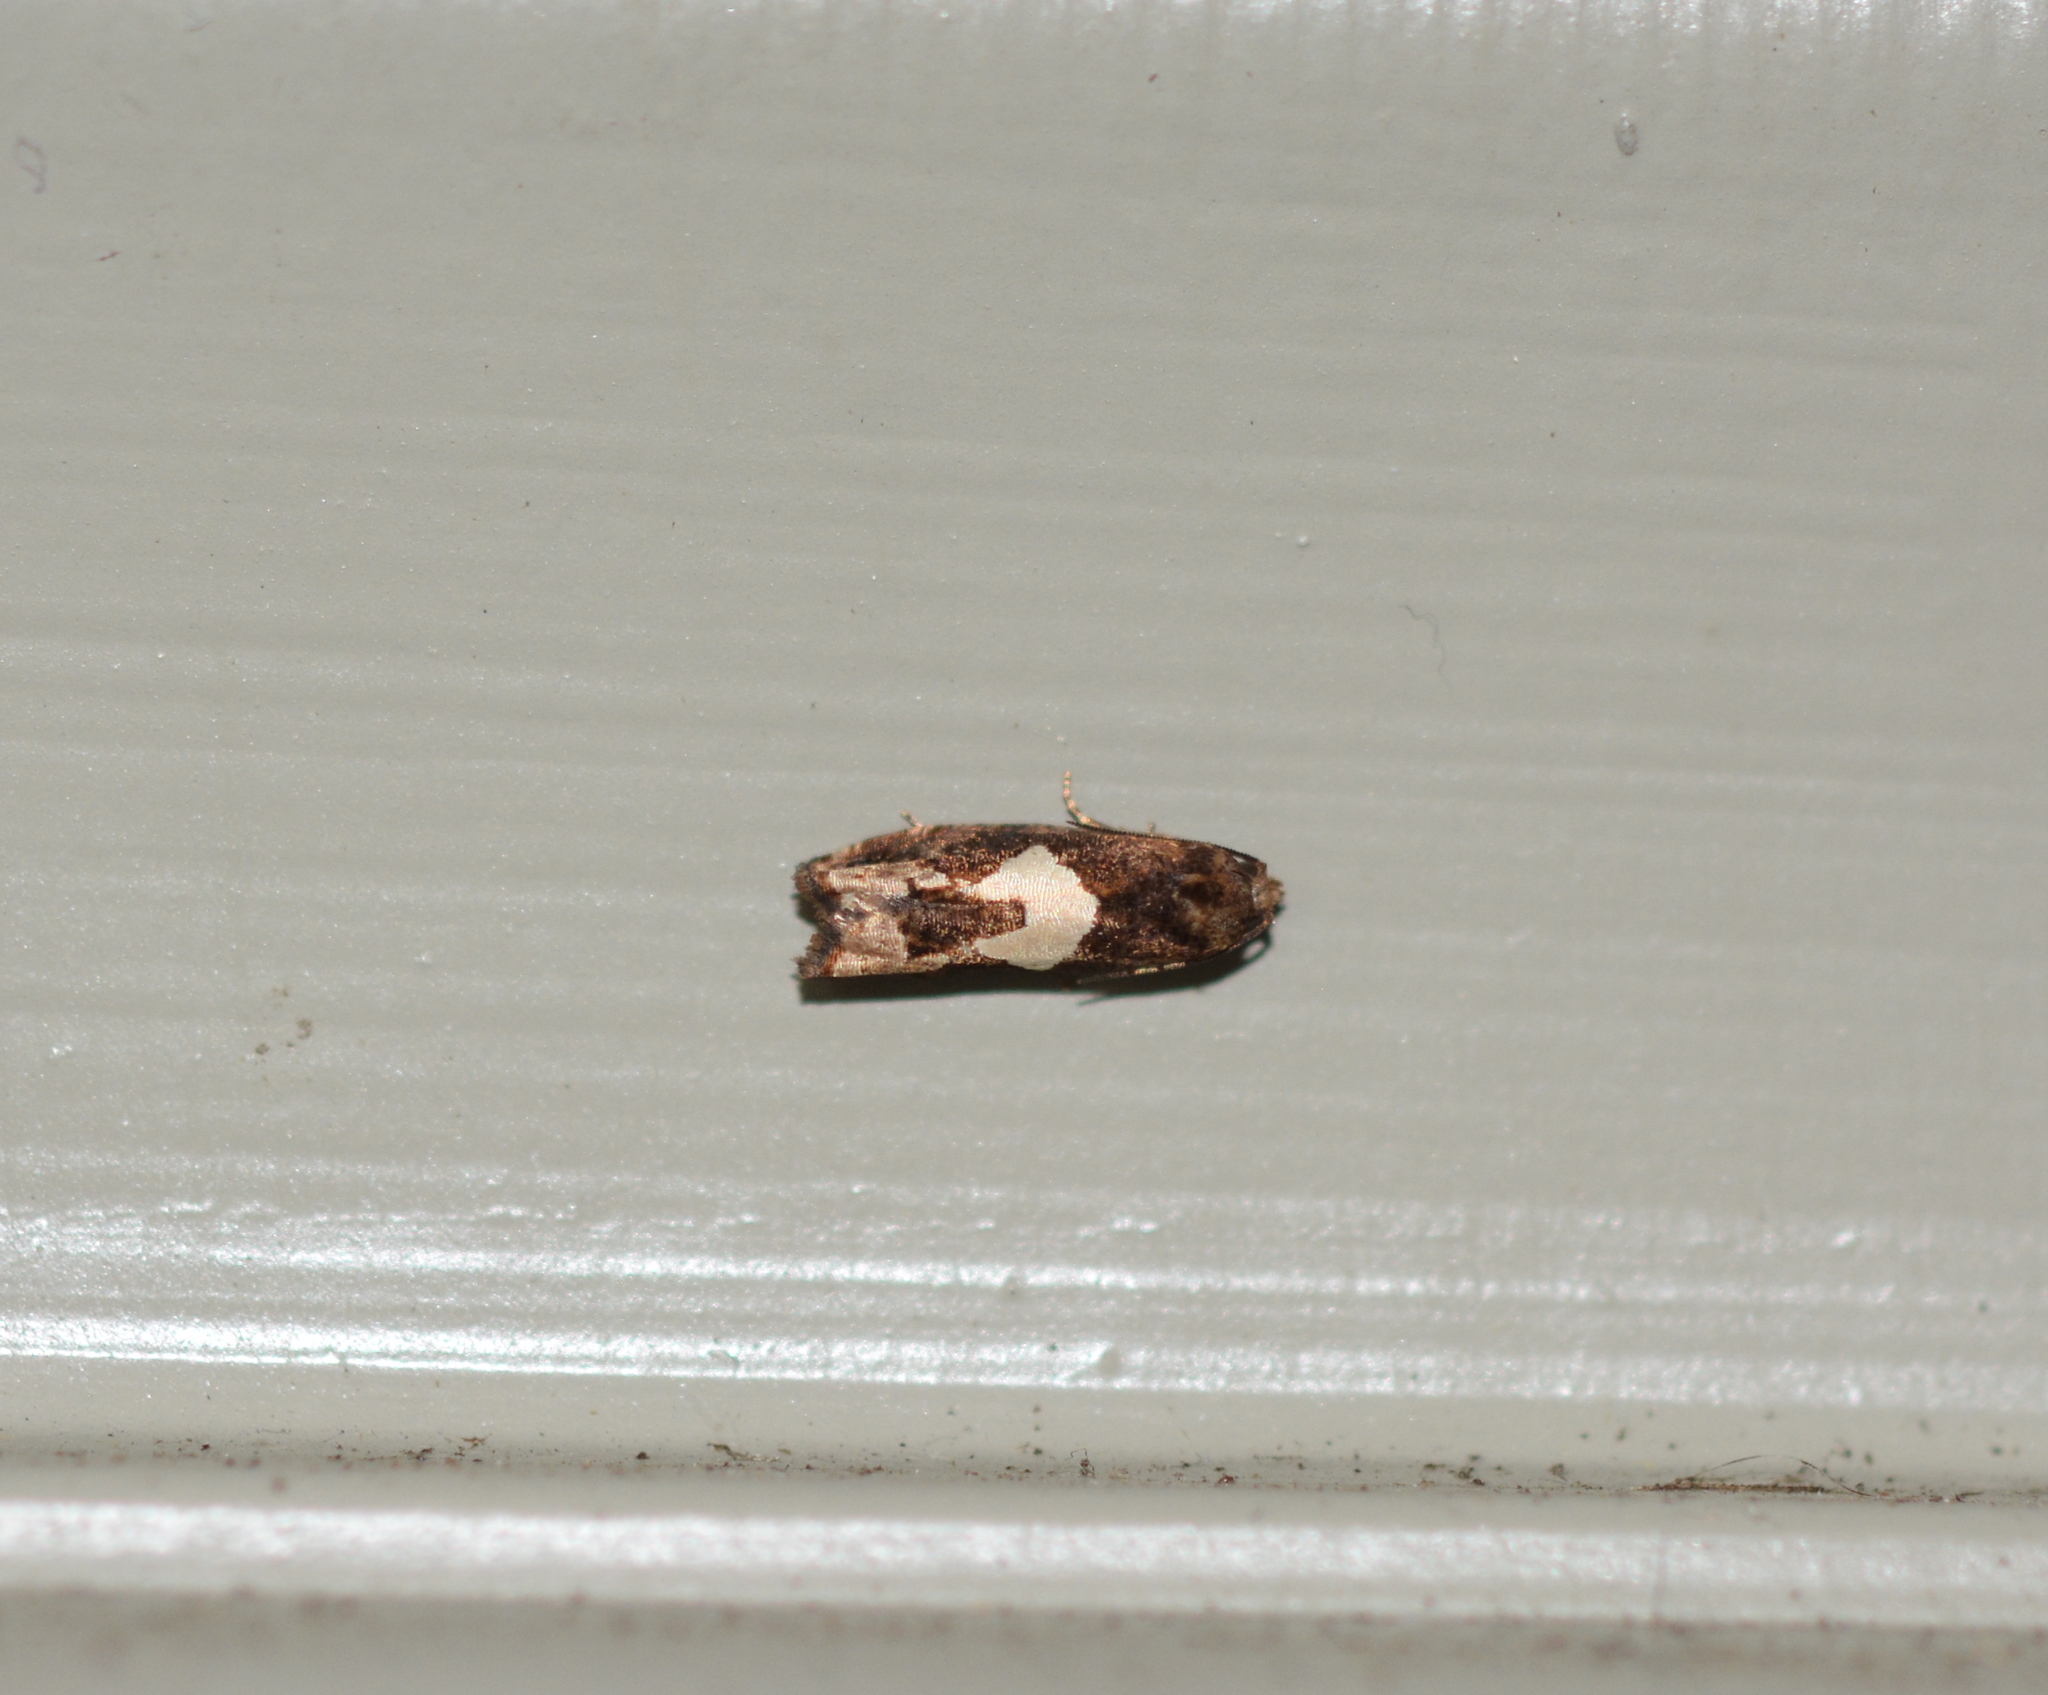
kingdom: Animalia
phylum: Arthropoda
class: Insecta
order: Lepidoptera
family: Tortricidae
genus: Epiblema
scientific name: Epiblema otiosana
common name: Bidens borer moth
